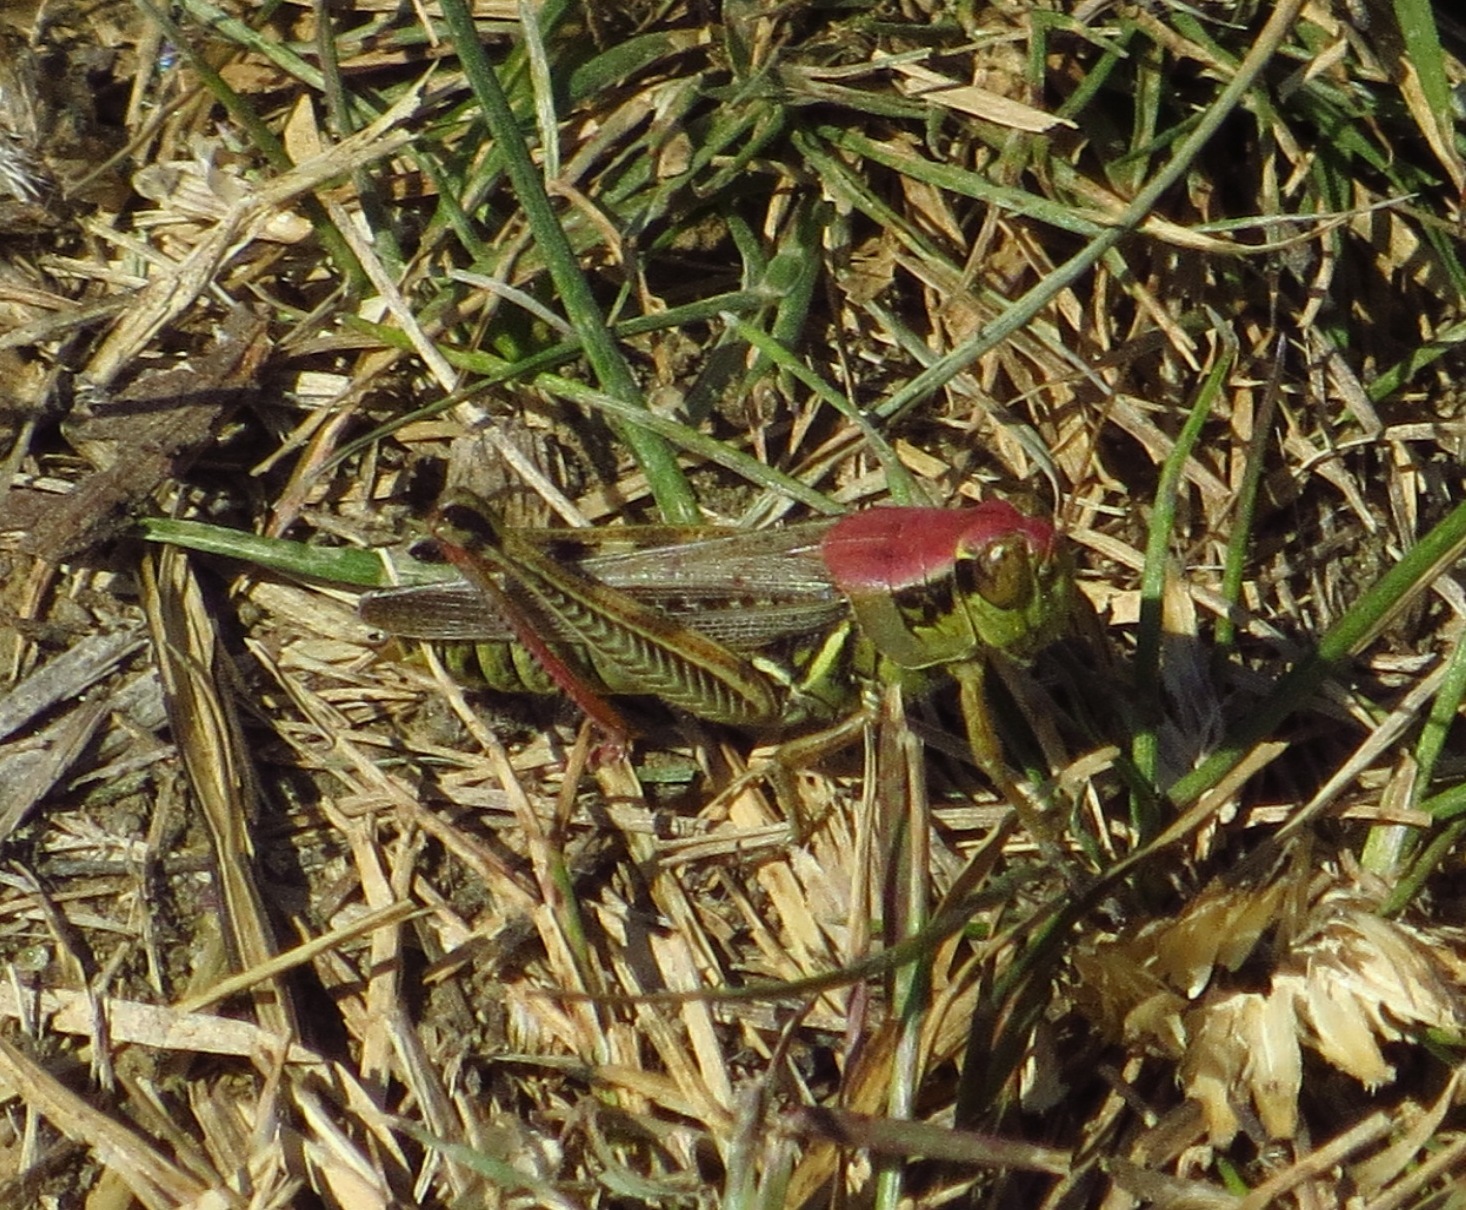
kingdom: Animalia
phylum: Arthropoda
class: Insecta
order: Orthoptera
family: Acrididae
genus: Melanoplus
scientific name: Melanoplus femurrubrum
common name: Red-legged grasshopper
